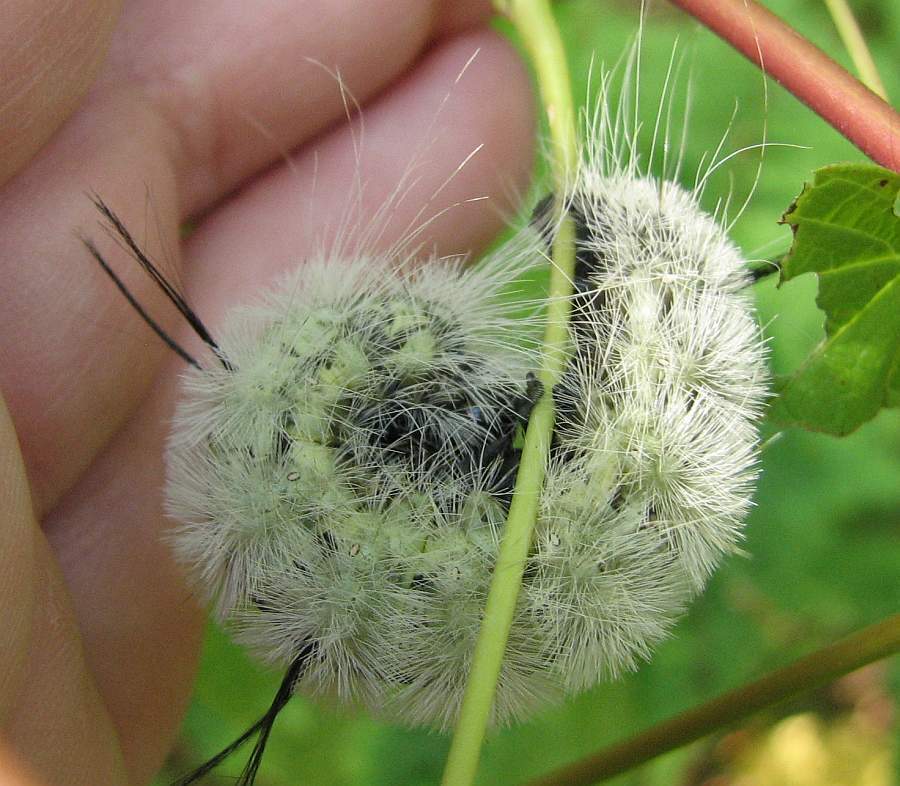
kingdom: Animalia
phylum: Arthropoda
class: Insecta
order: Lepidoptera
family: Noctuidae
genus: Acronicta
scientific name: Acronicta americana
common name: American dagger
